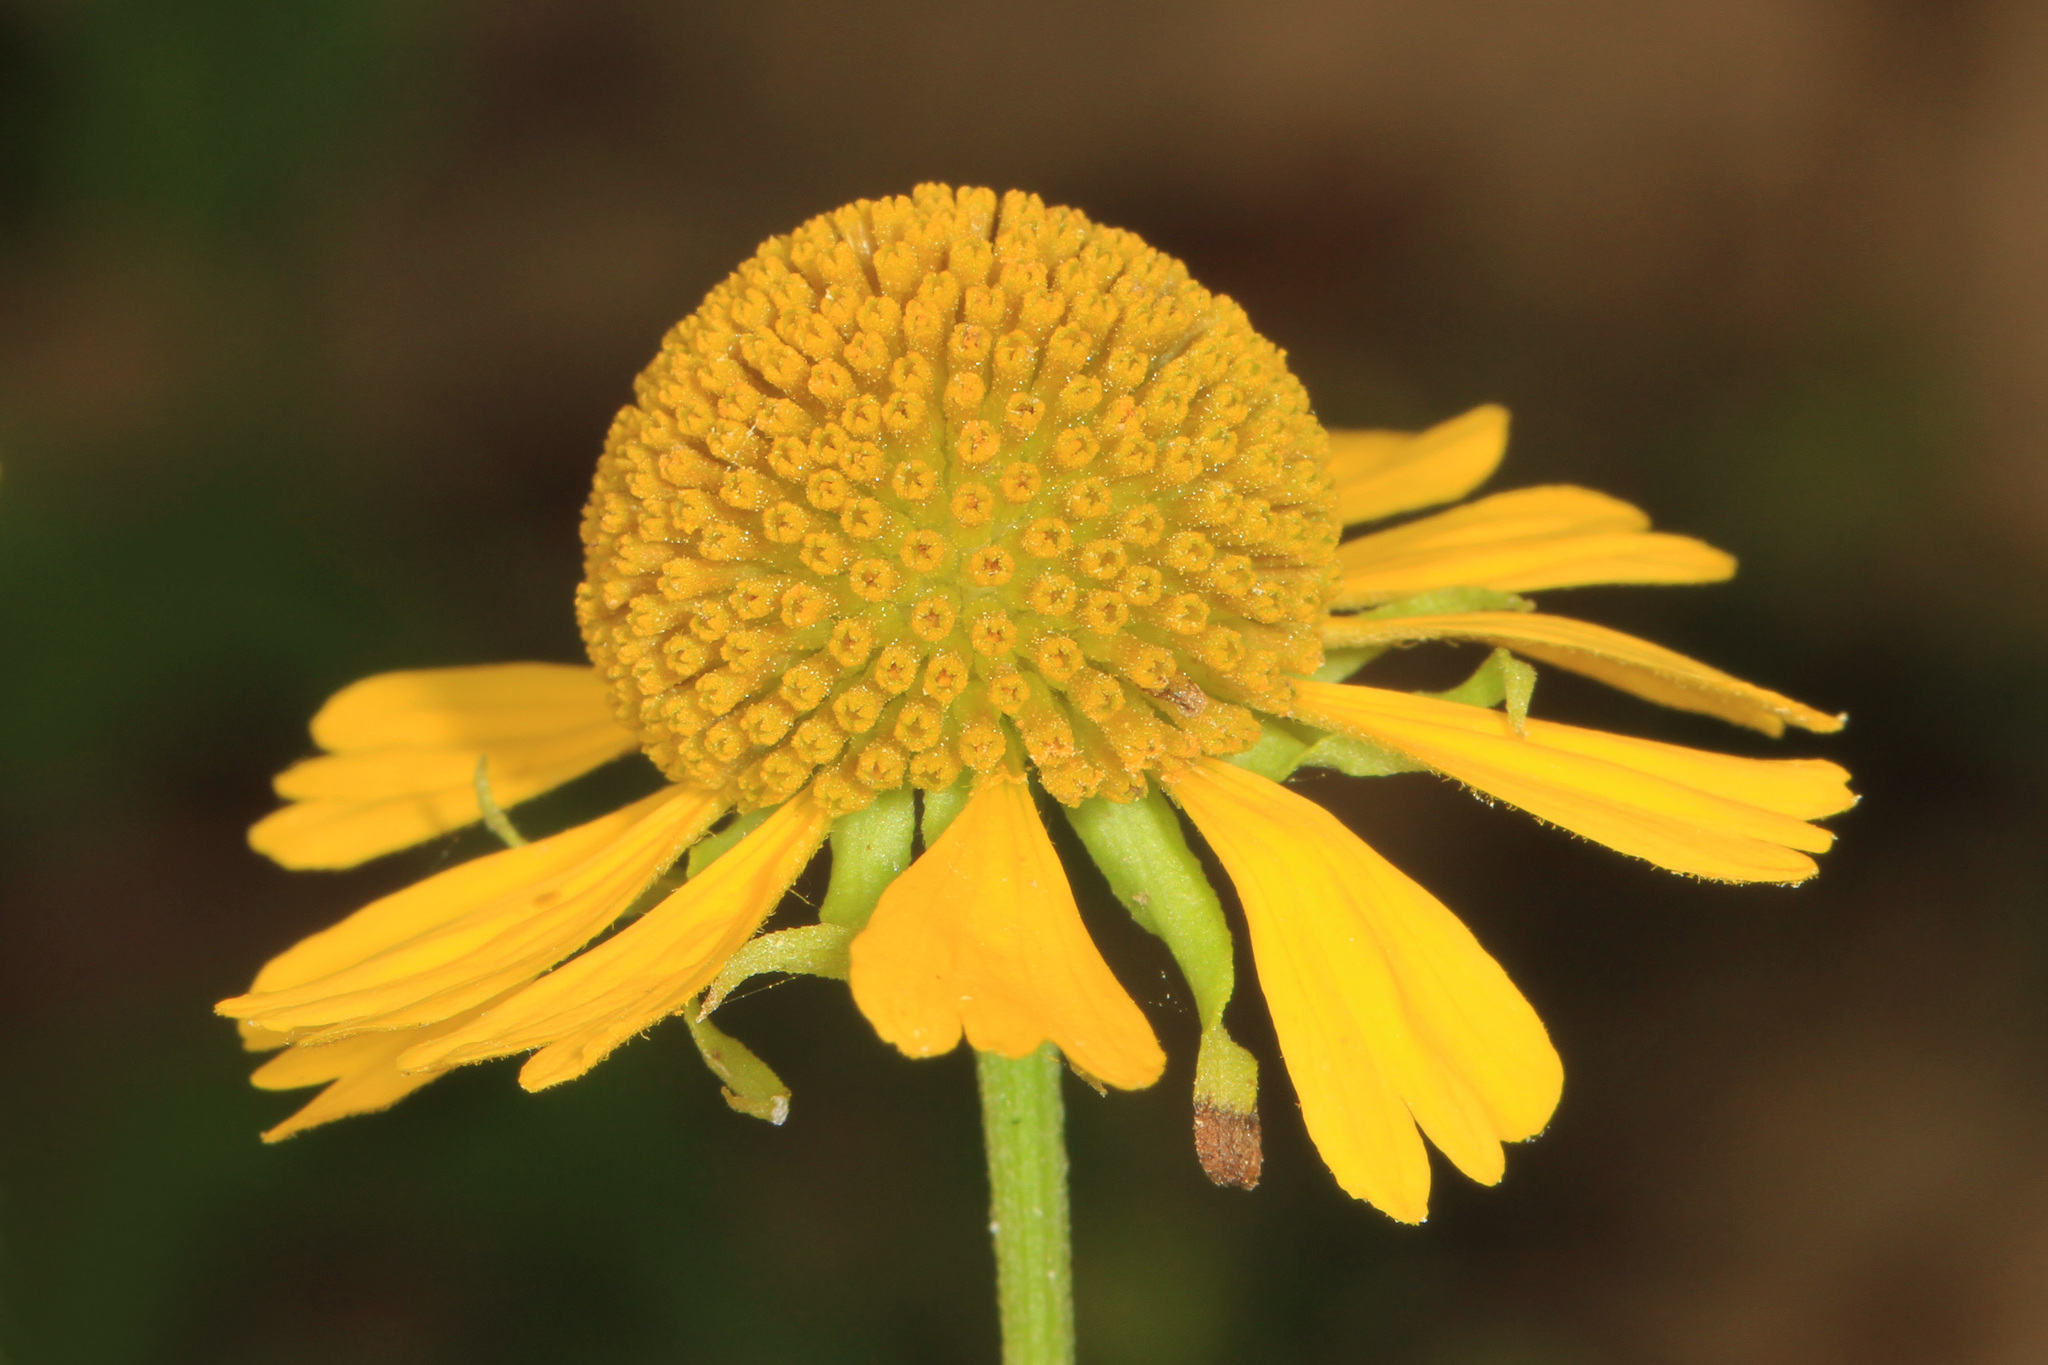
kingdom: Plantae
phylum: Tracheophyta
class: Magnoliopsida
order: Asterales
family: Asteraceae
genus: Helenium
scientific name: Helenium autumnale
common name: Sneezeweed
